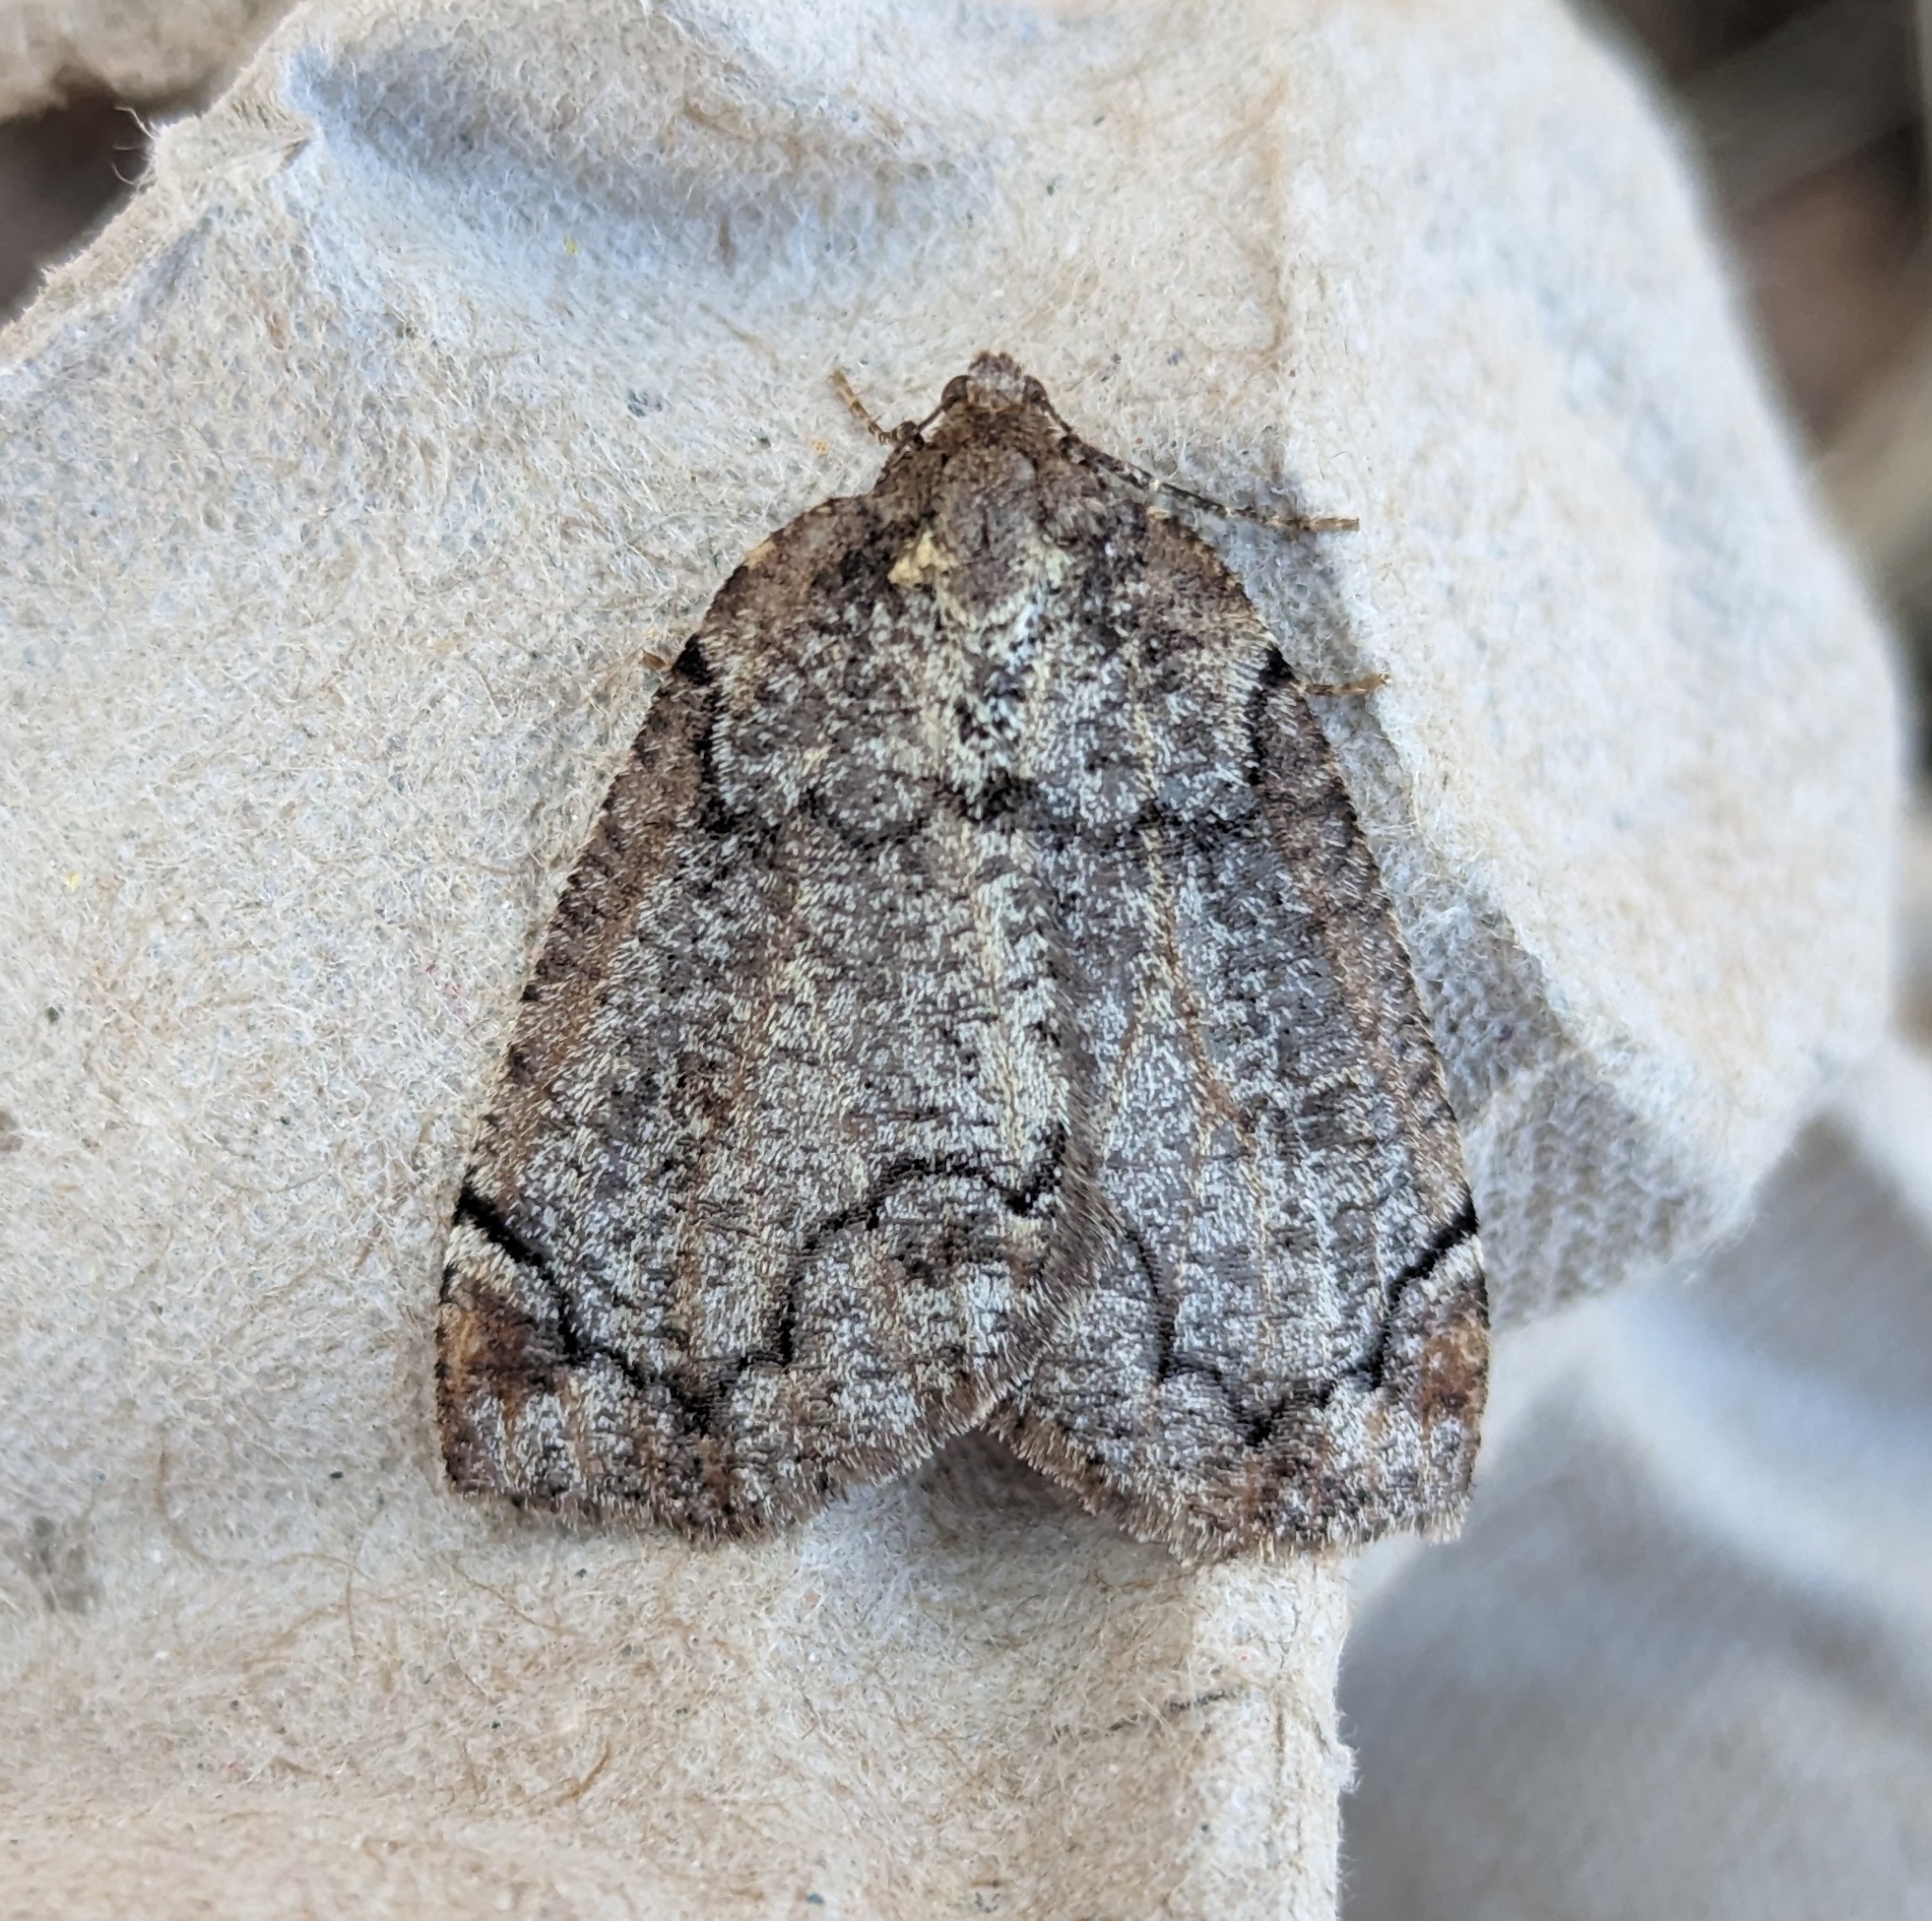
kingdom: Animalia
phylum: Arthropoda
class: Insecta
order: Lepidoptera
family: Geometridae
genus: Spodolepis
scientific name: Spodolepis danbyi
